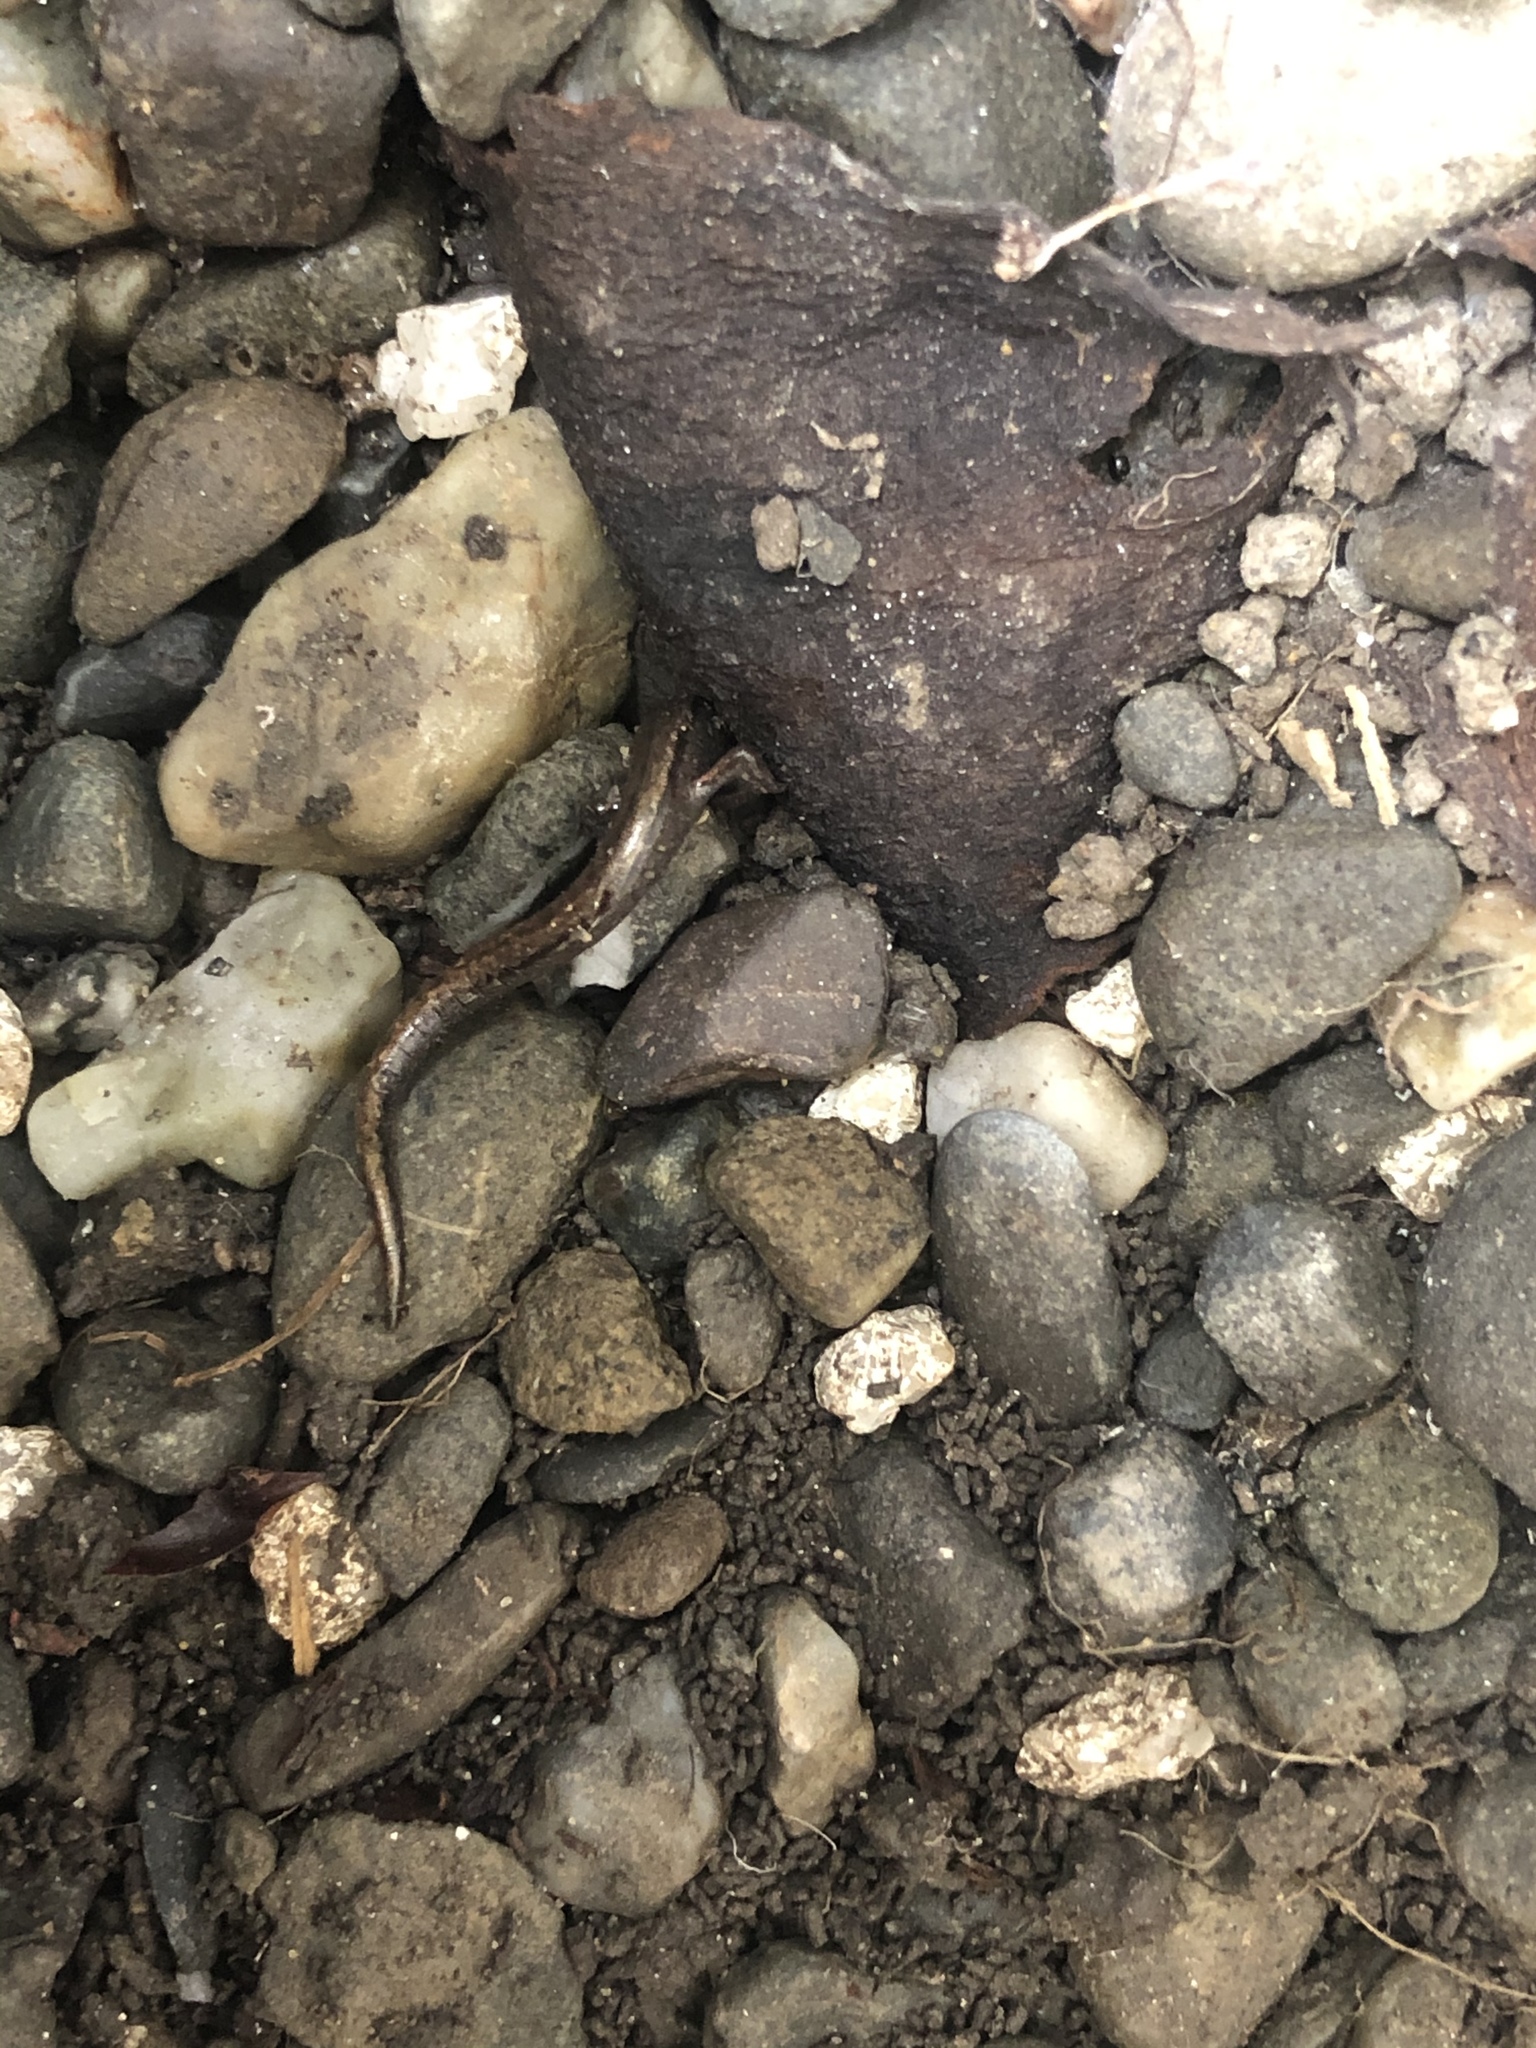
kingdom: Animalia
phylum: Chordata
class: Amphibia
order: Caudata
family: Plethodontidae
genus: Batrachoseps
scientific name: Batrachoseps attenuatus
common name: California slender salamander
